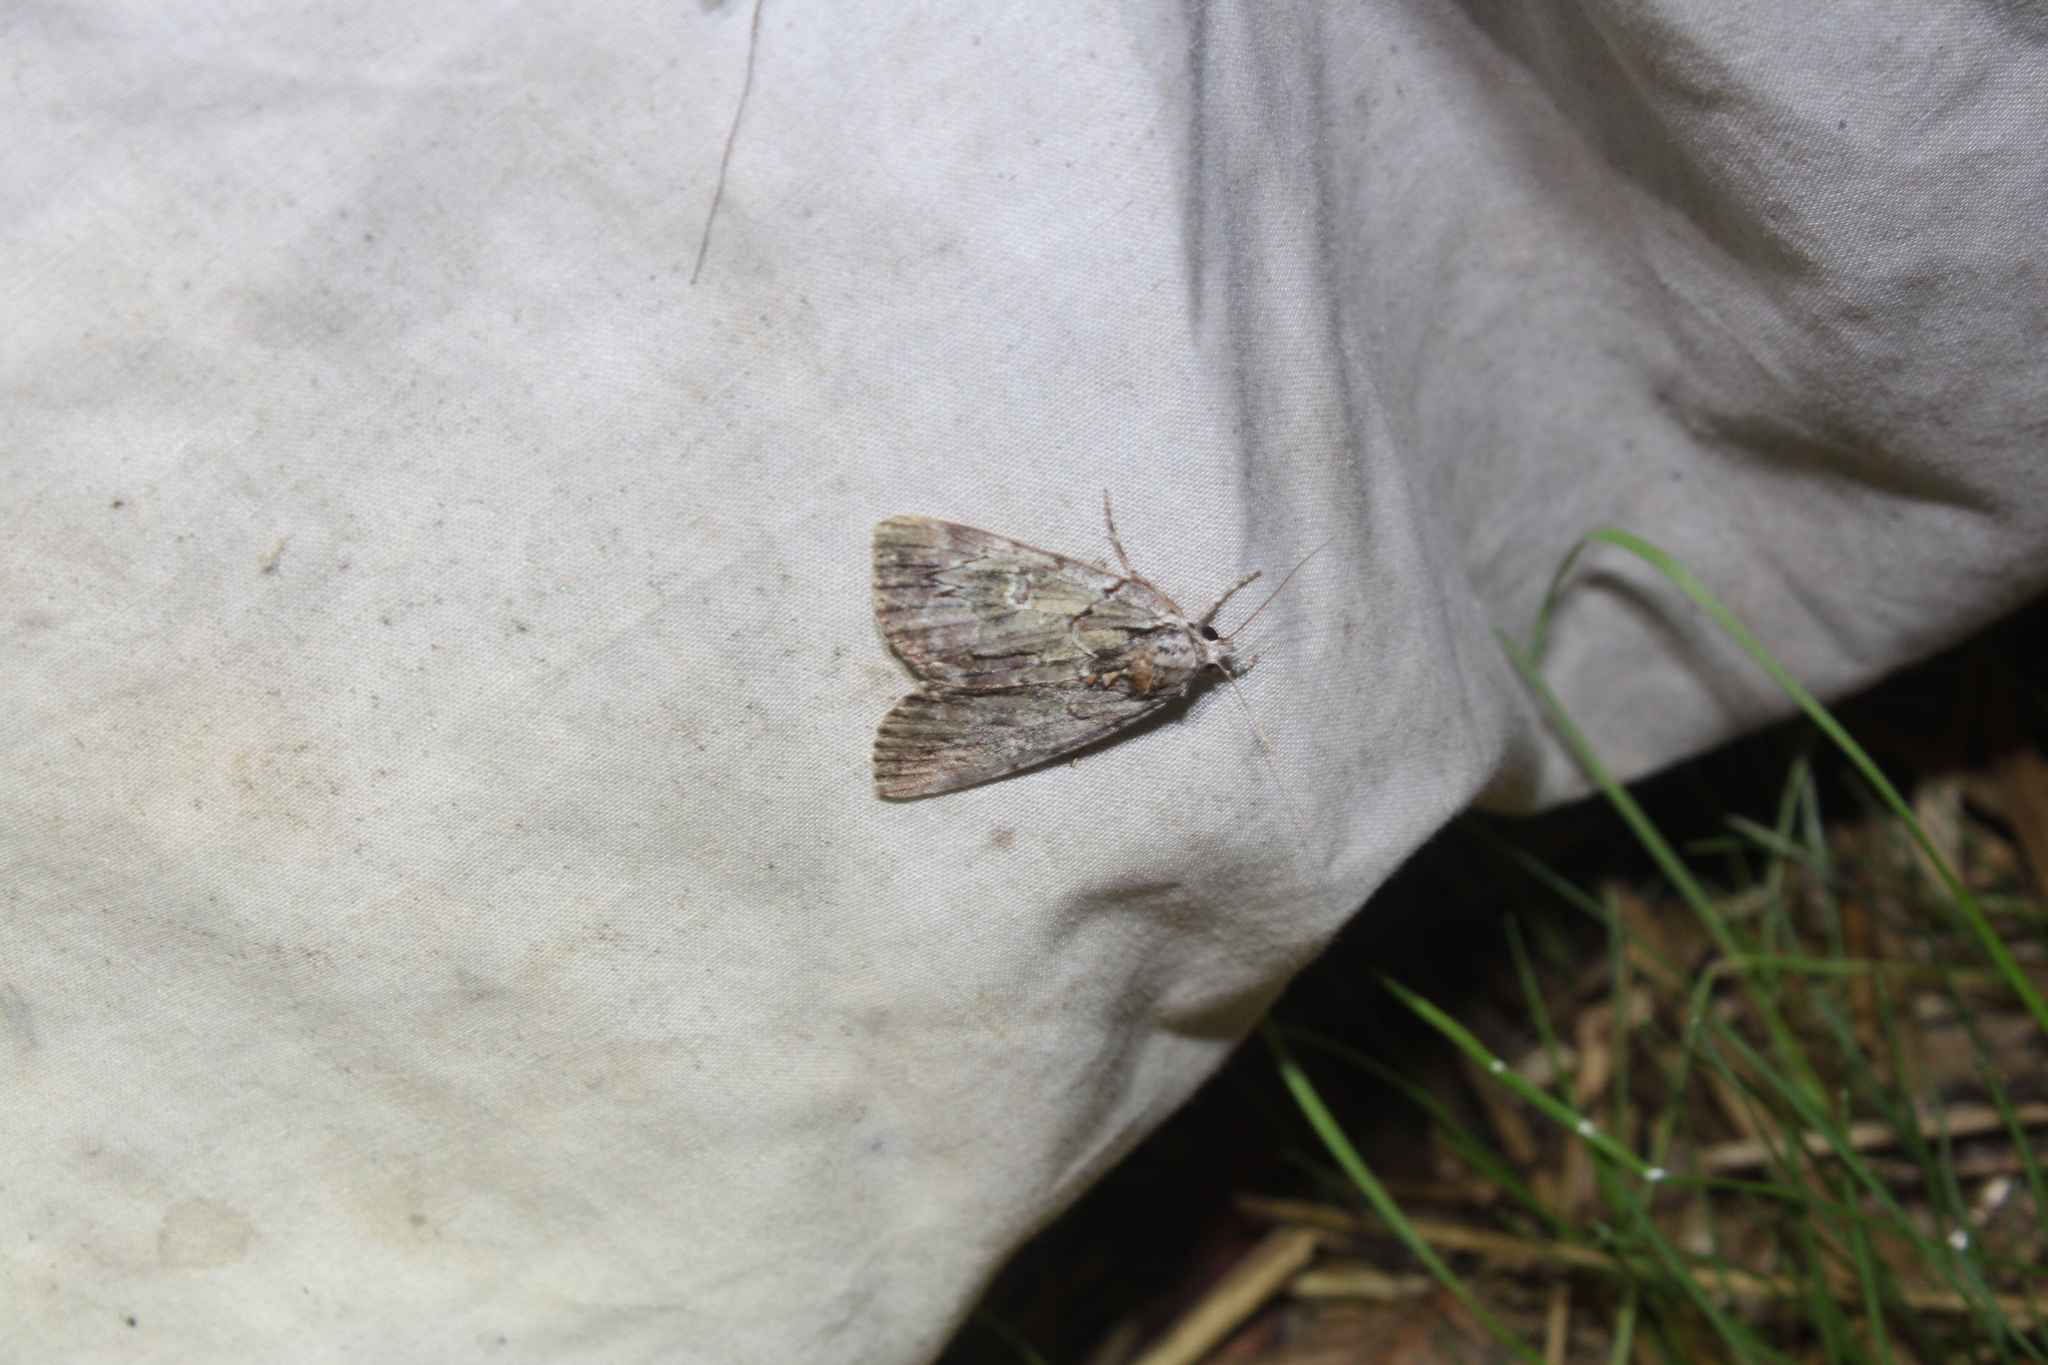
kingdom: Animalia
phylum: Arthropoda
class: Insecta
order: Lepidoptera
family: Erebidae
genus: Catocala
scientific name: Catocala praeclara
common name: Praeclara underwing
